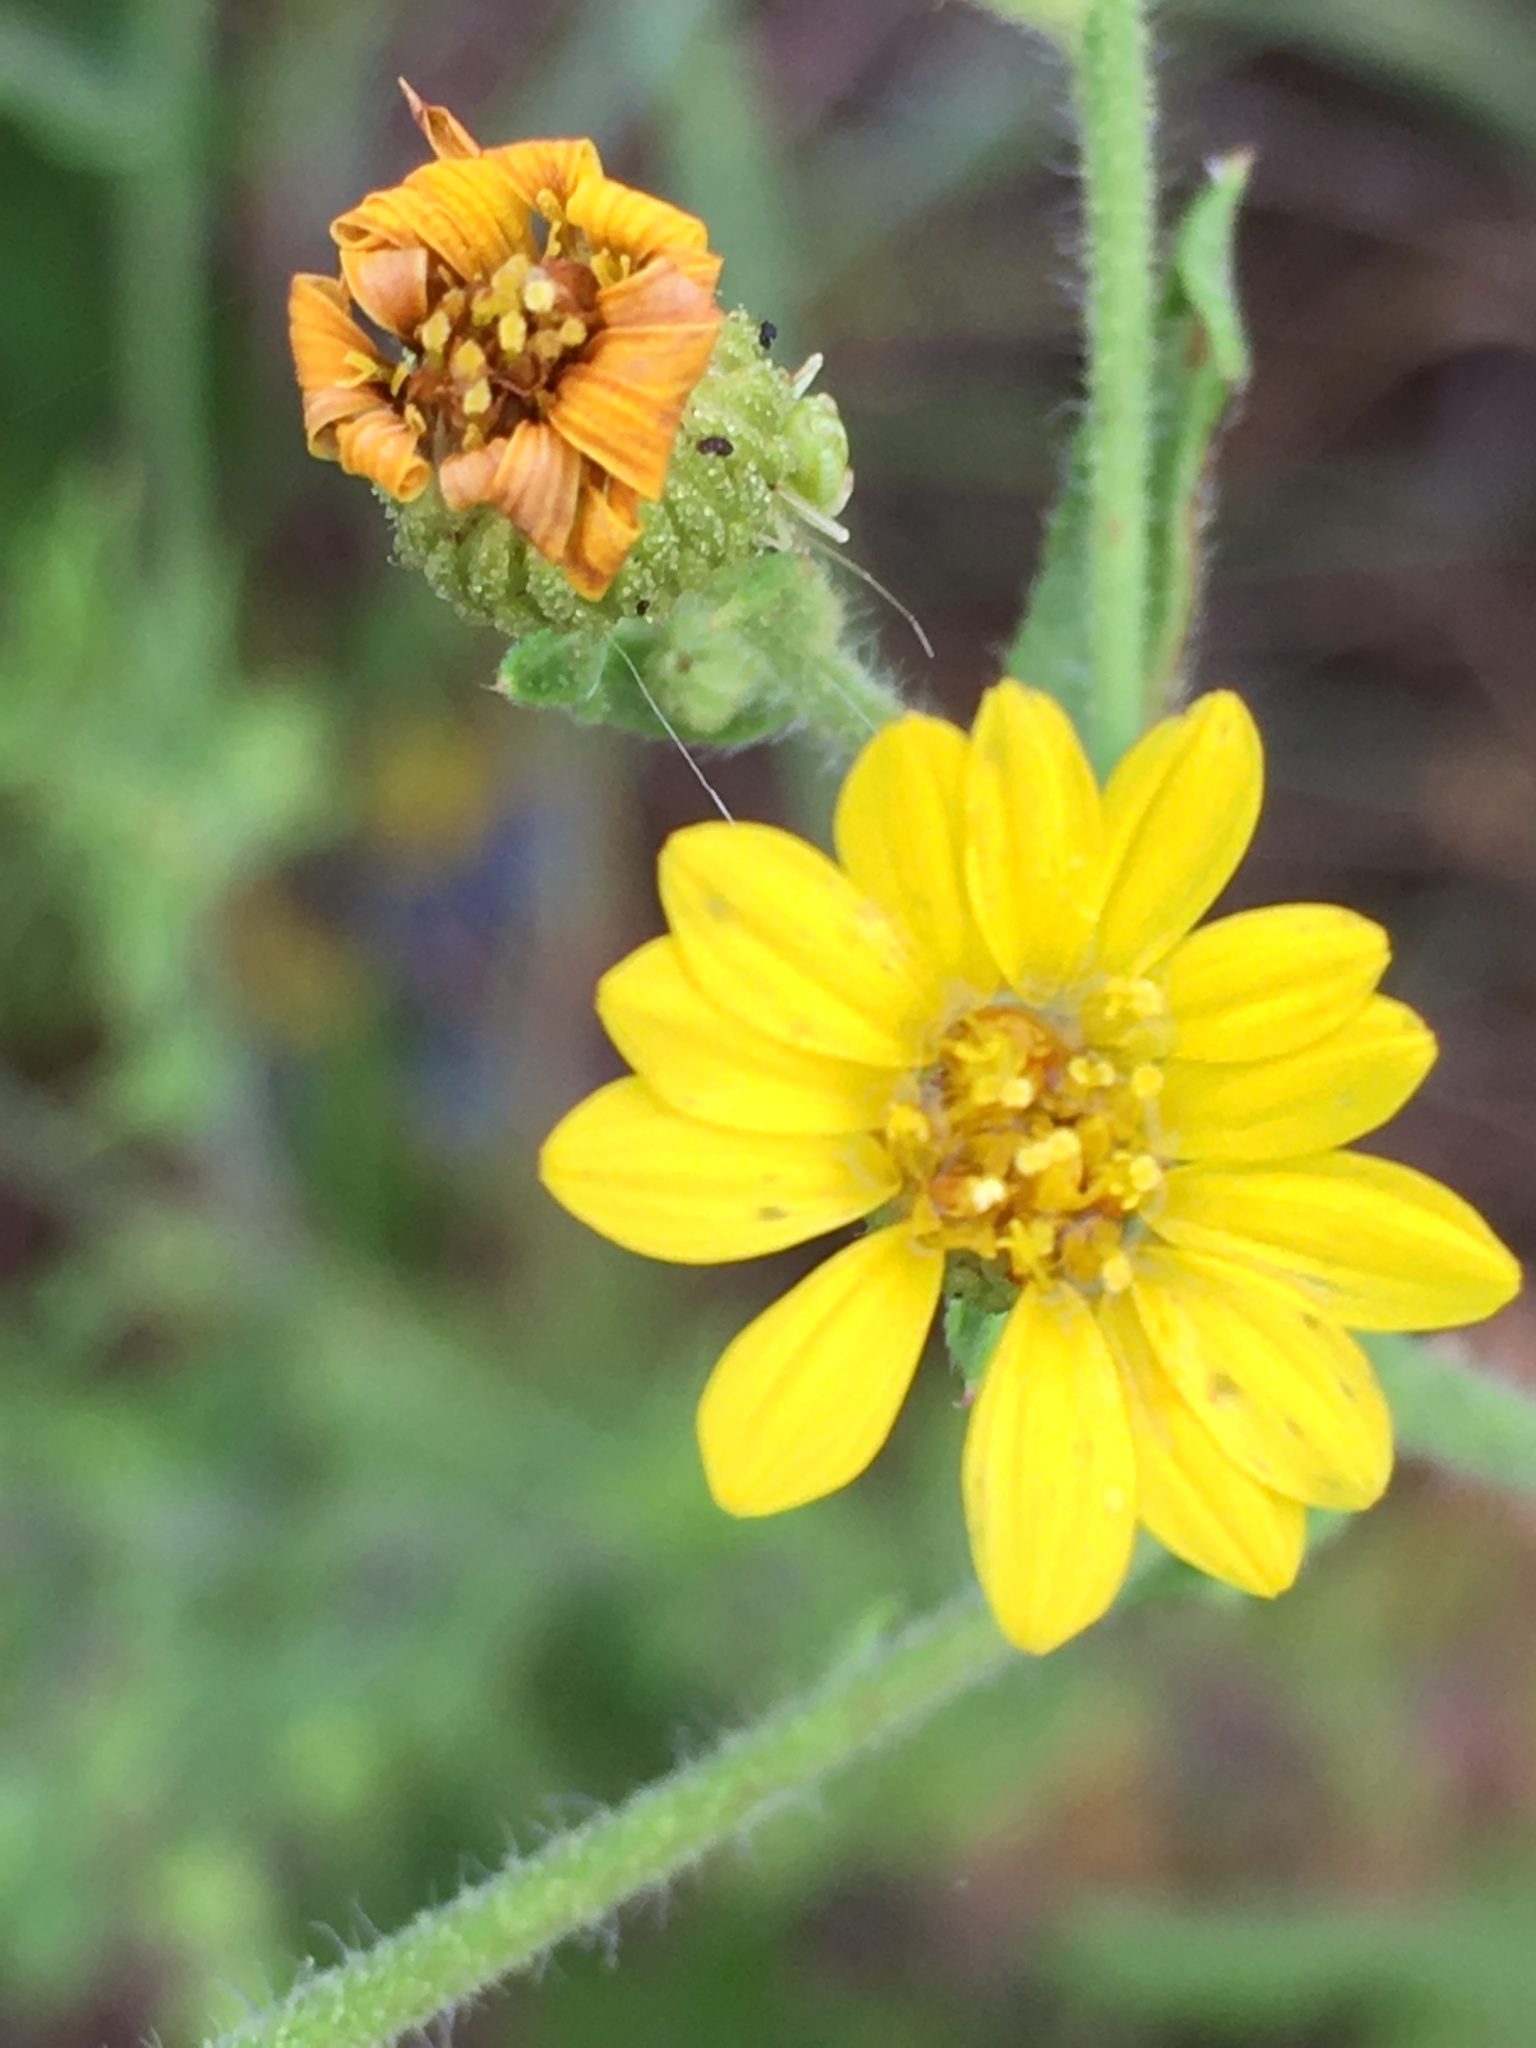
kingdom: Plantae
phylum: Tracheophyta
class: Magnoliopsida
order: Asterales
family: Asteraceae
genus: Heterotheca
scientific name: Heterotheca subaxillaris
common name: Camphorweed
